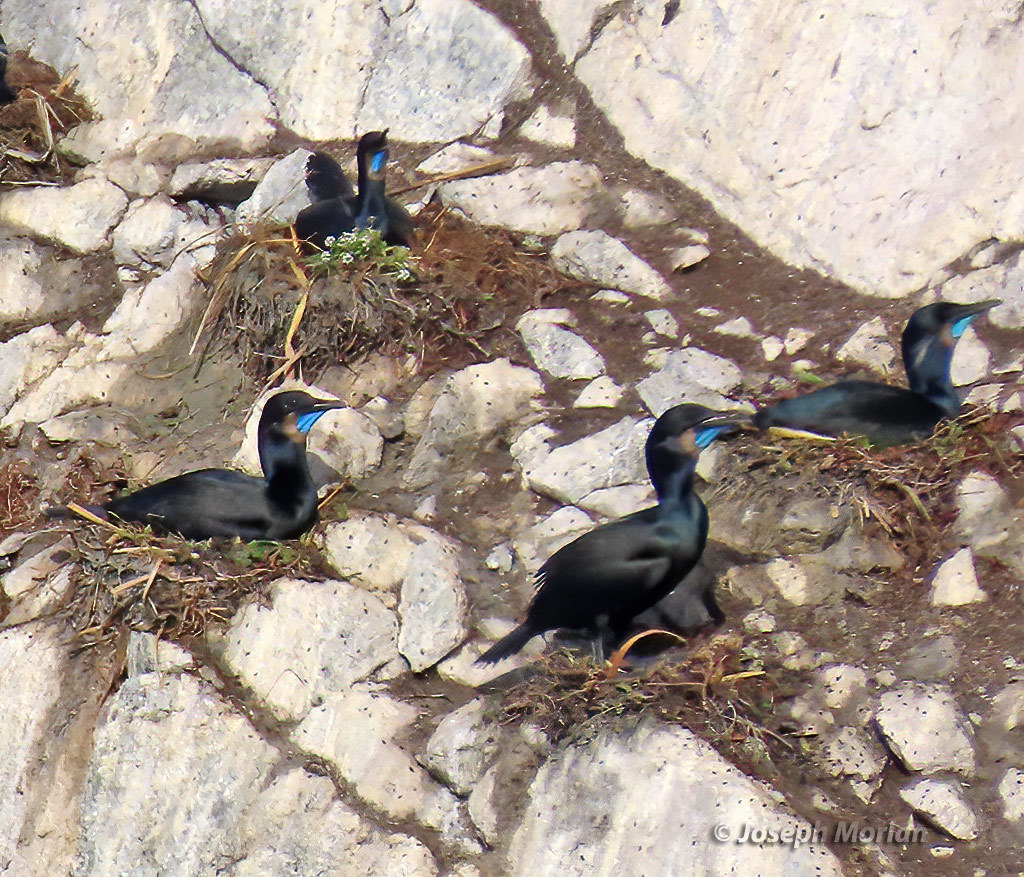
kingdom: Animalia
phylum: Chordata
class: Aves
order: Suliformes
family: Phalacrocoracidae
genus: Urile
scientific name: Urile penicillatus
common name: Brandt's cormorant
